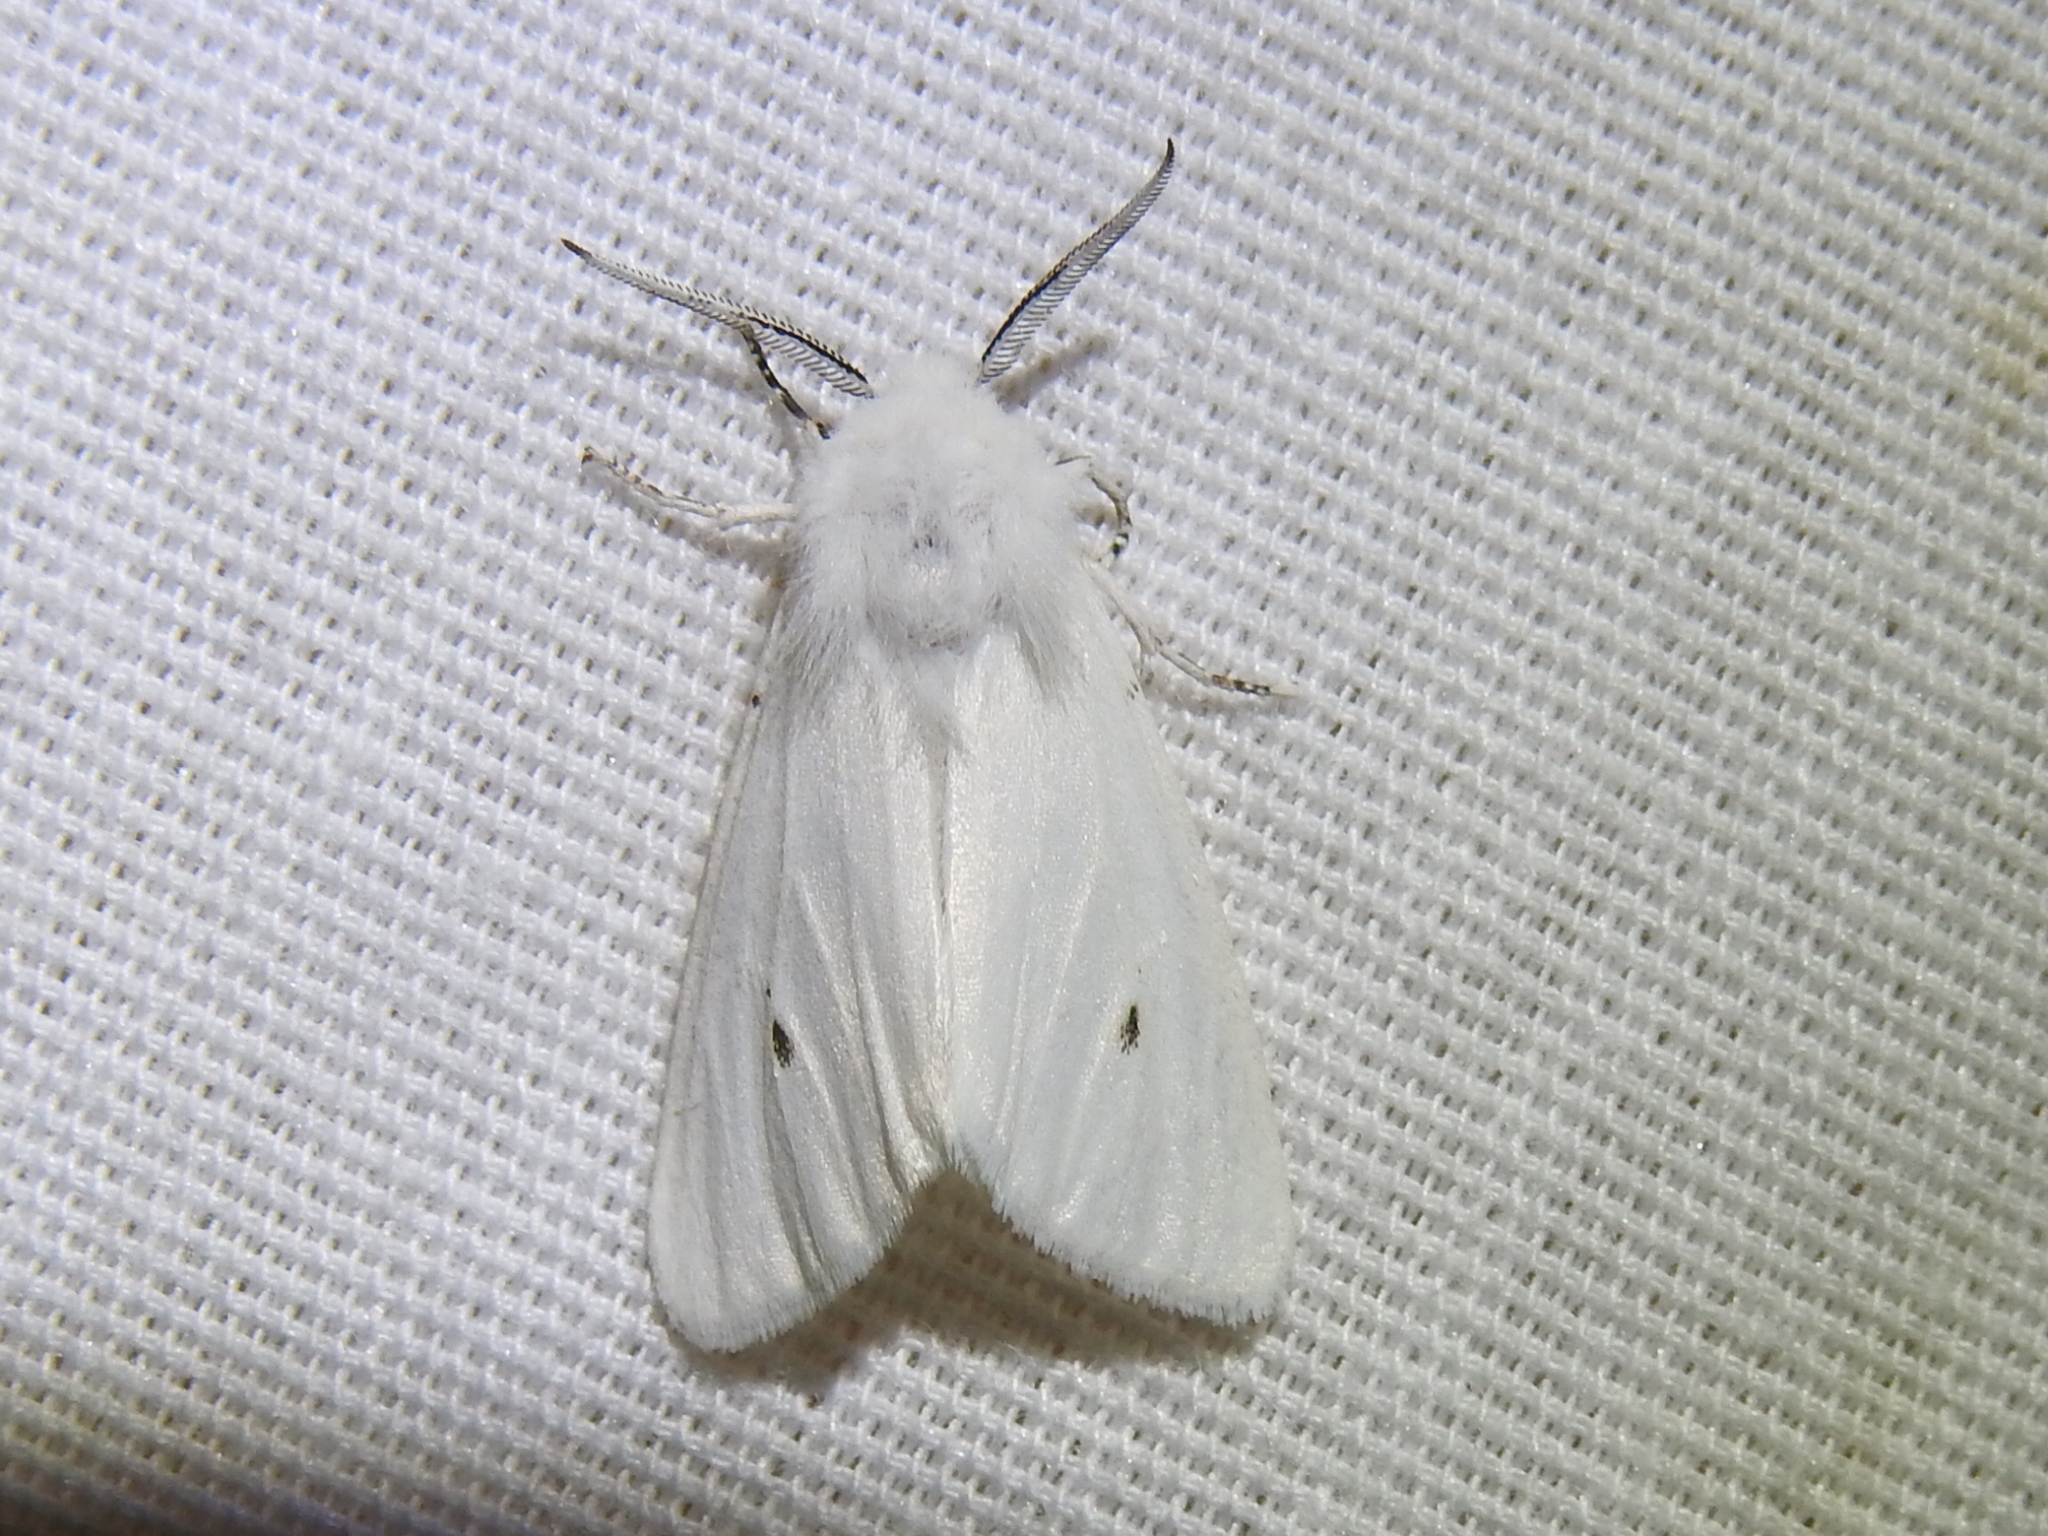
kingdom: Animalia
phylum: Arthropoda
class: Insecta
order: Lepidoptera
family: Erebidae
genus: Hyphantria
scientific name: Hyphantria cunea
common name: American white moth
